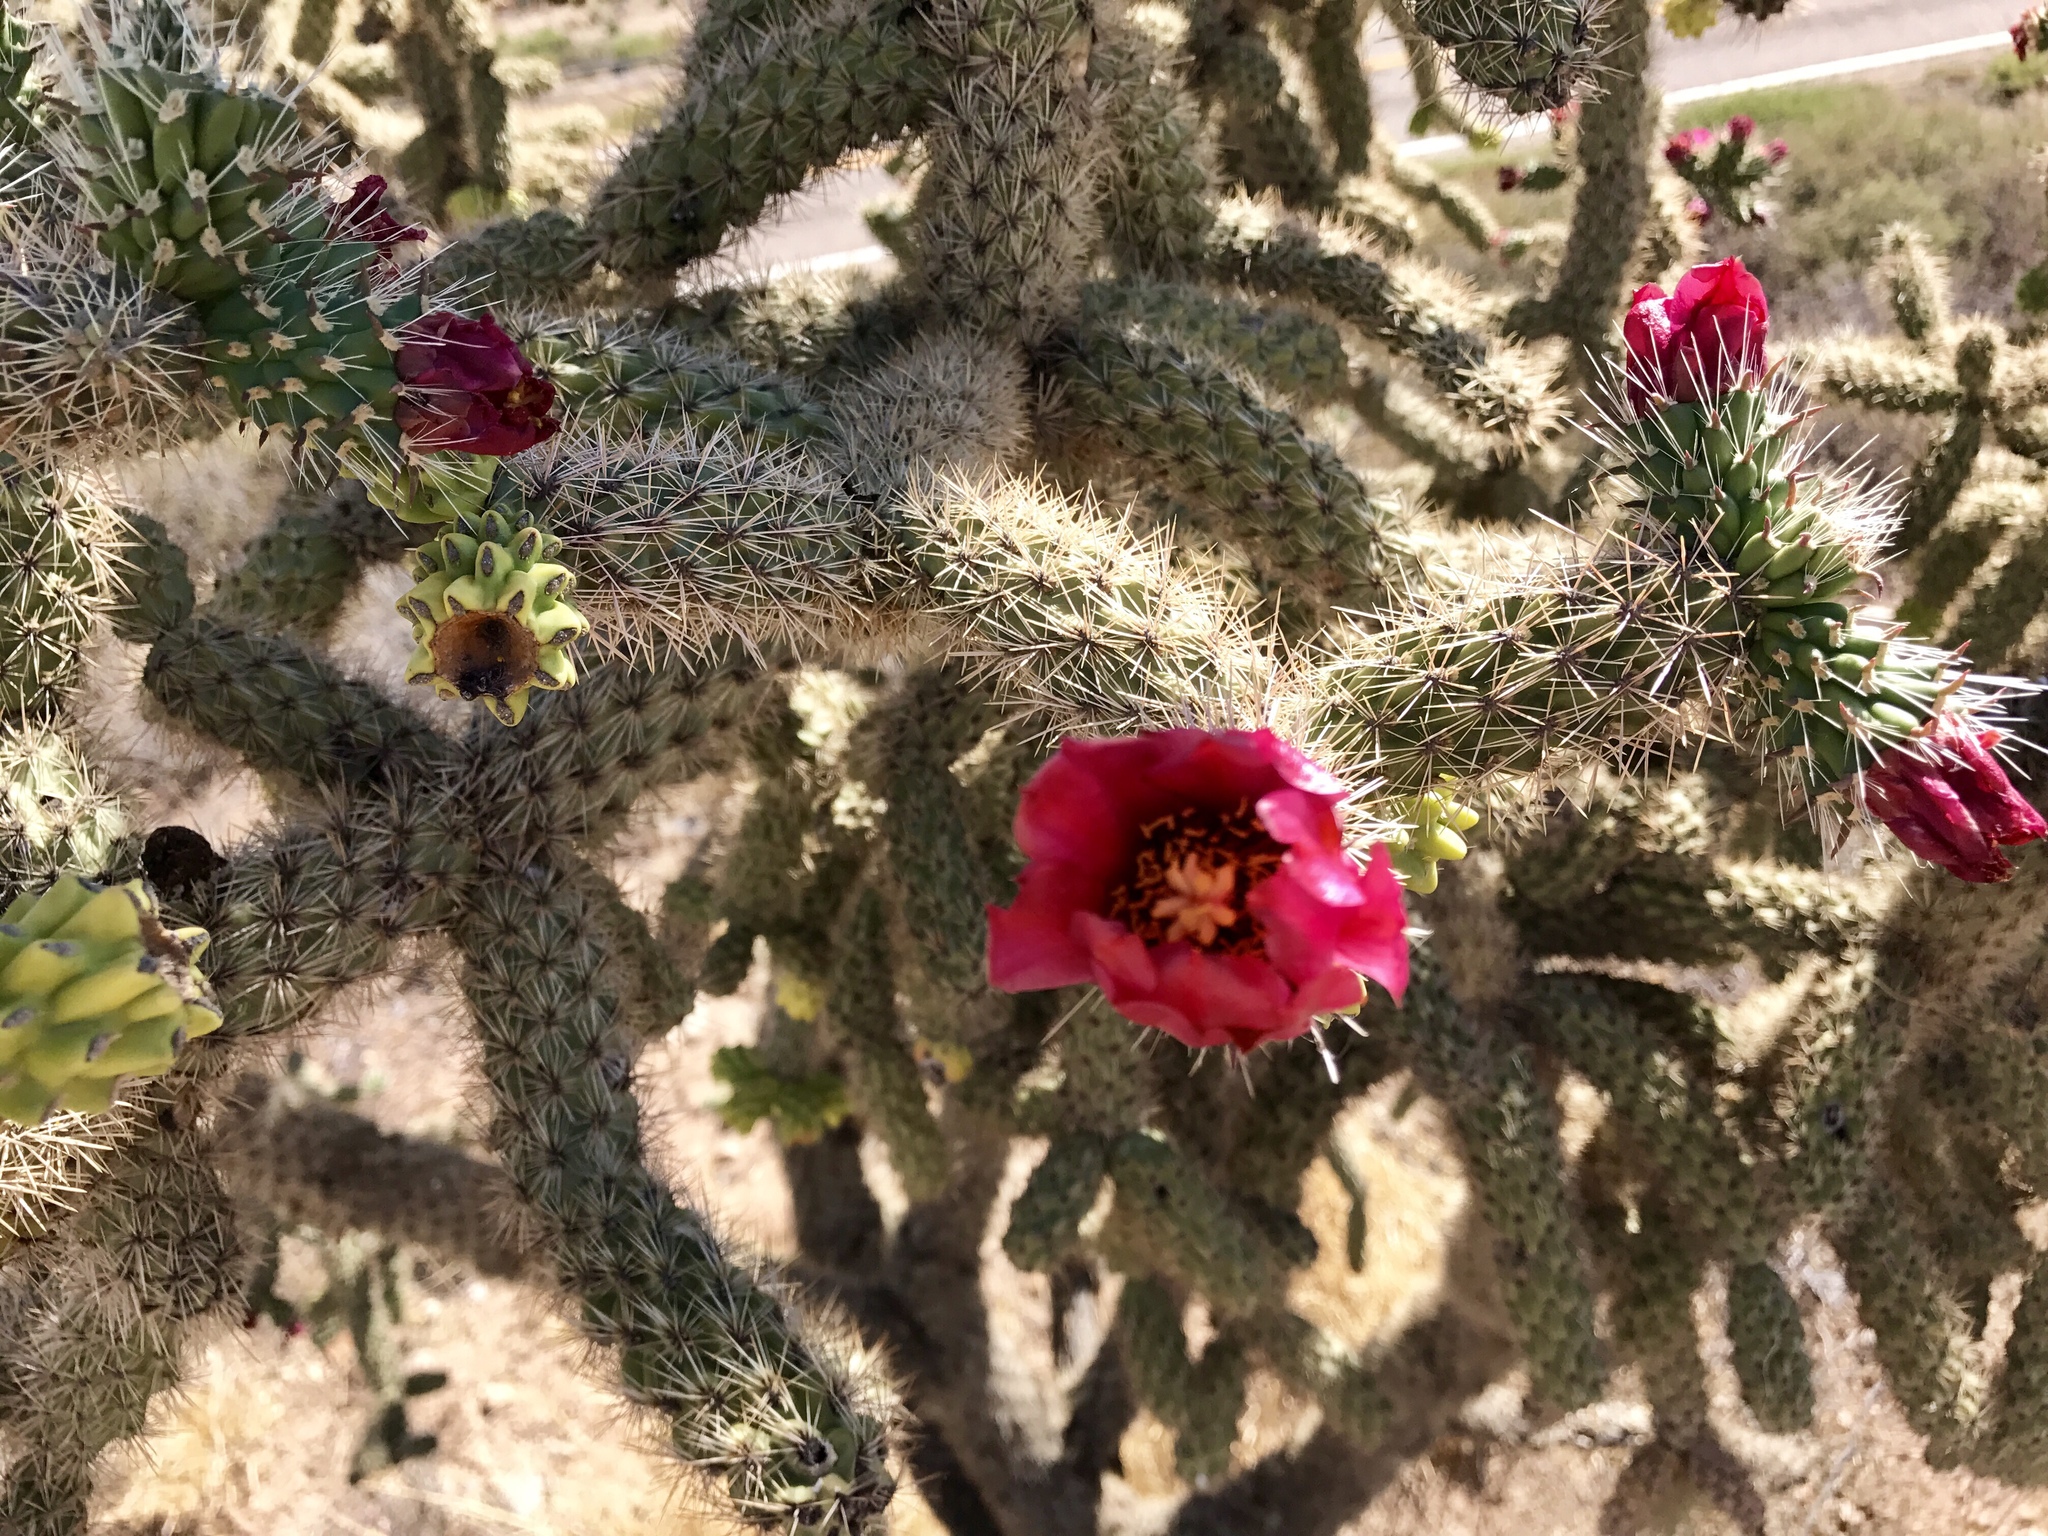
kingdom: Plantae
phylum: Tracheophyta
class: Magnoliopsida
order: Caryophyllales
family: Cactaceae
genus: Cylindropuntia
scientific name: Cylindropuntia imbricata
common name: Candelabrum cactus
